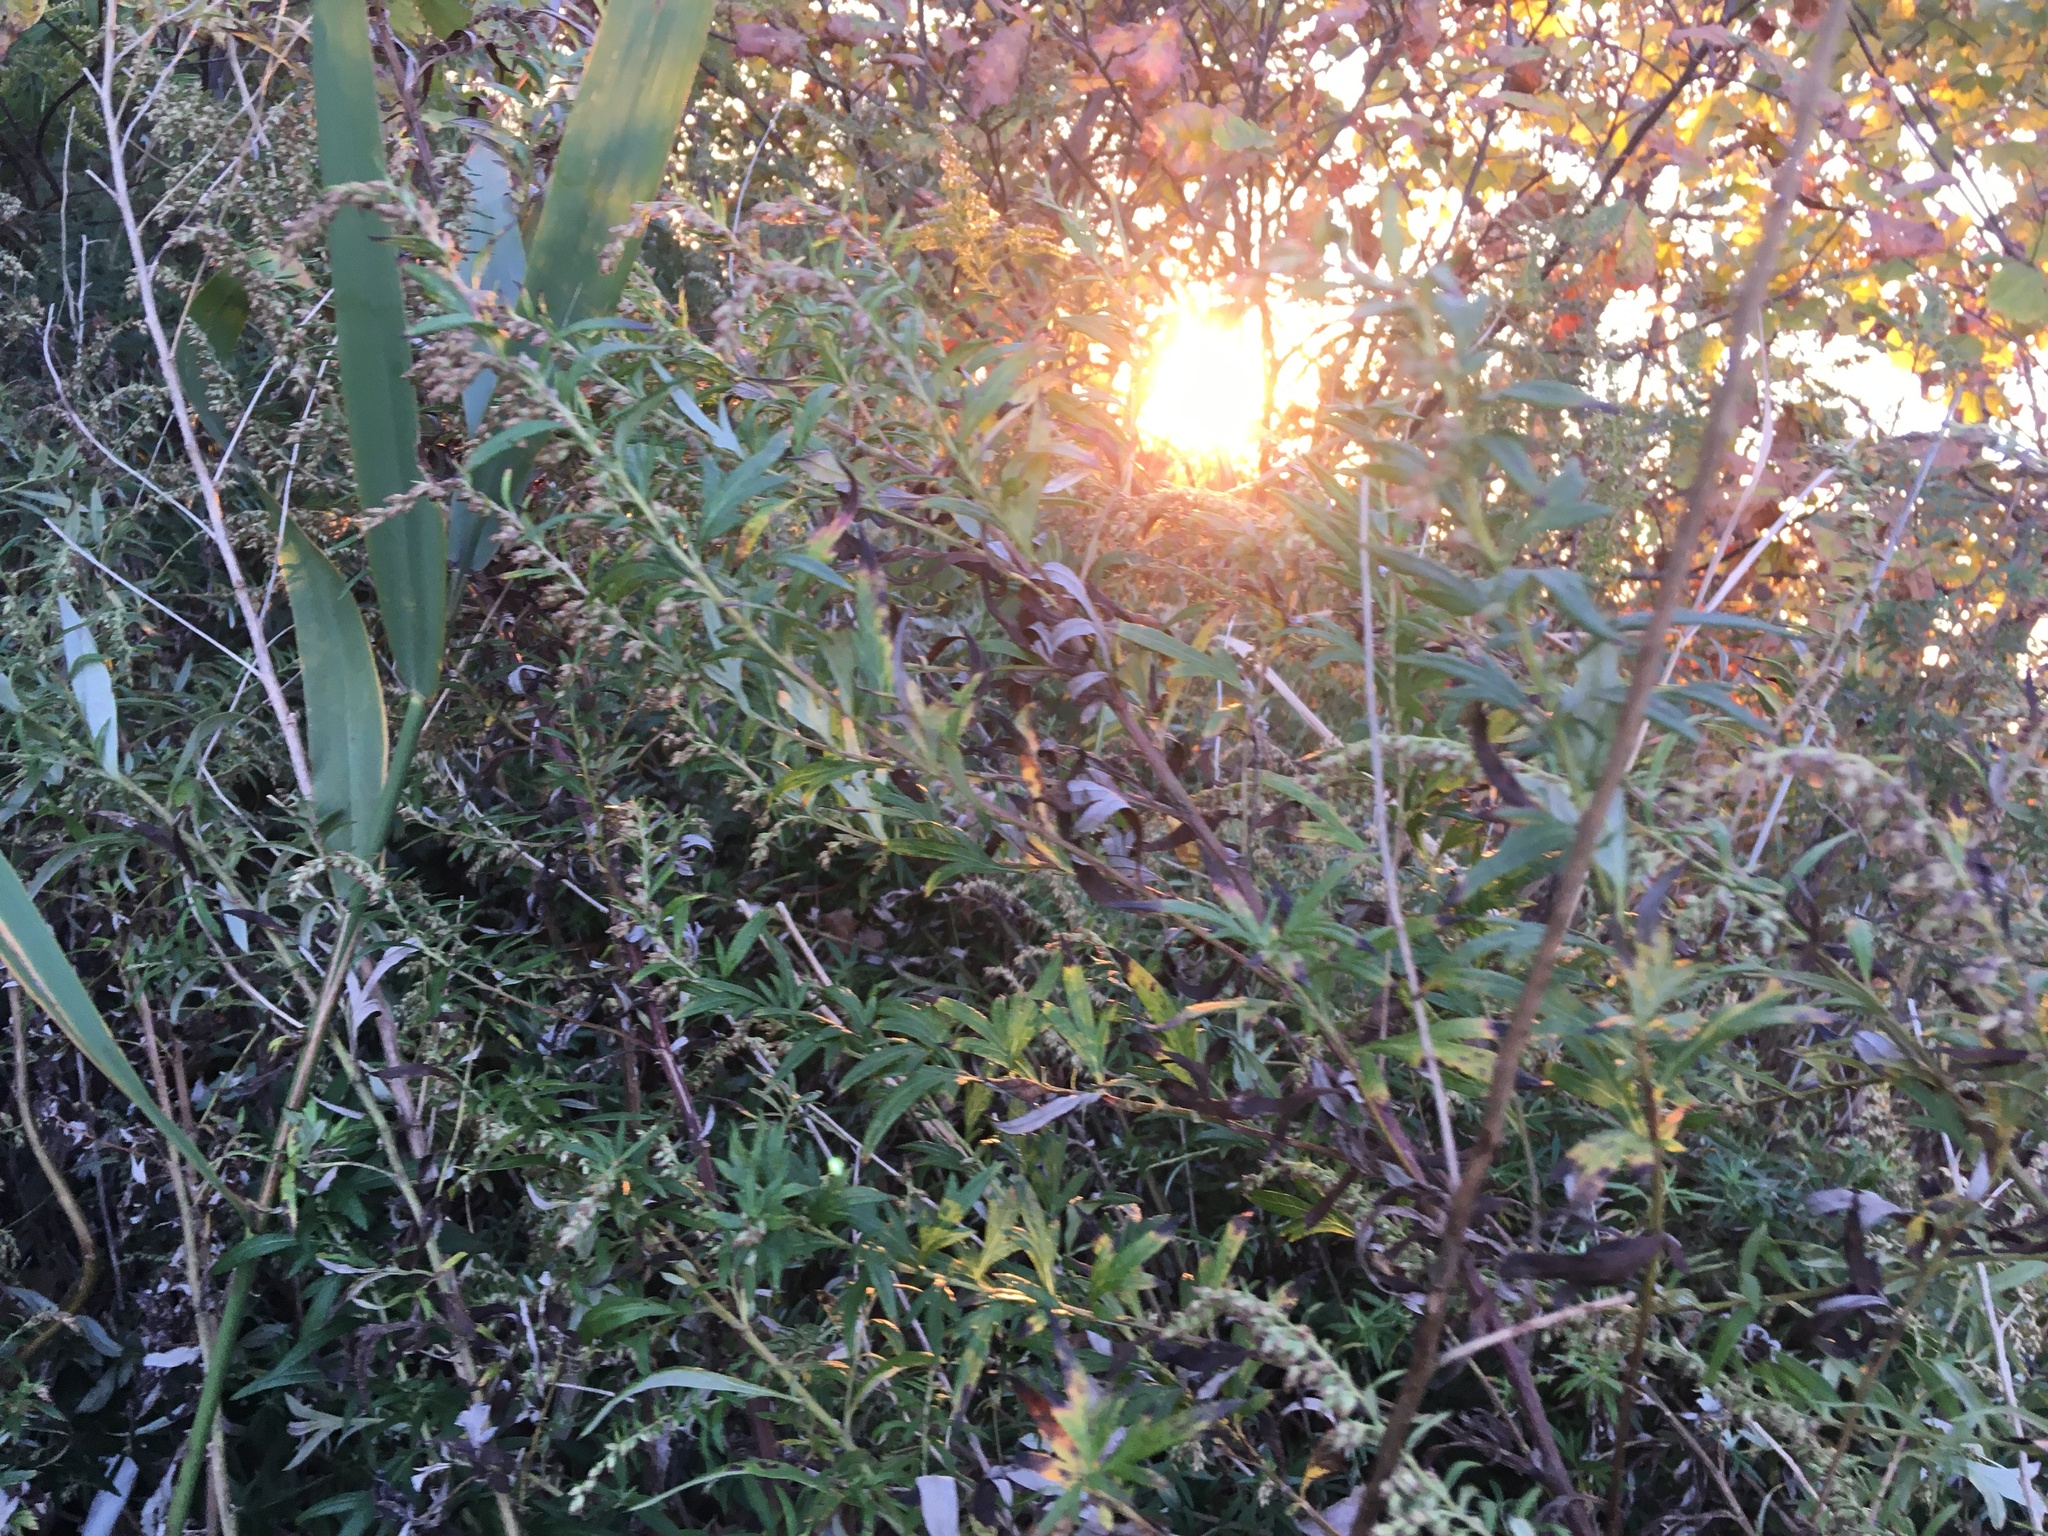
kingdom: Plantae
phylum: Tracheophyta
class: Magnoliopsida
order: Asterales
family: Asteraceae
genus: Artemisia
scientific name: Artemisia vulgaris
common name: Mugwort
